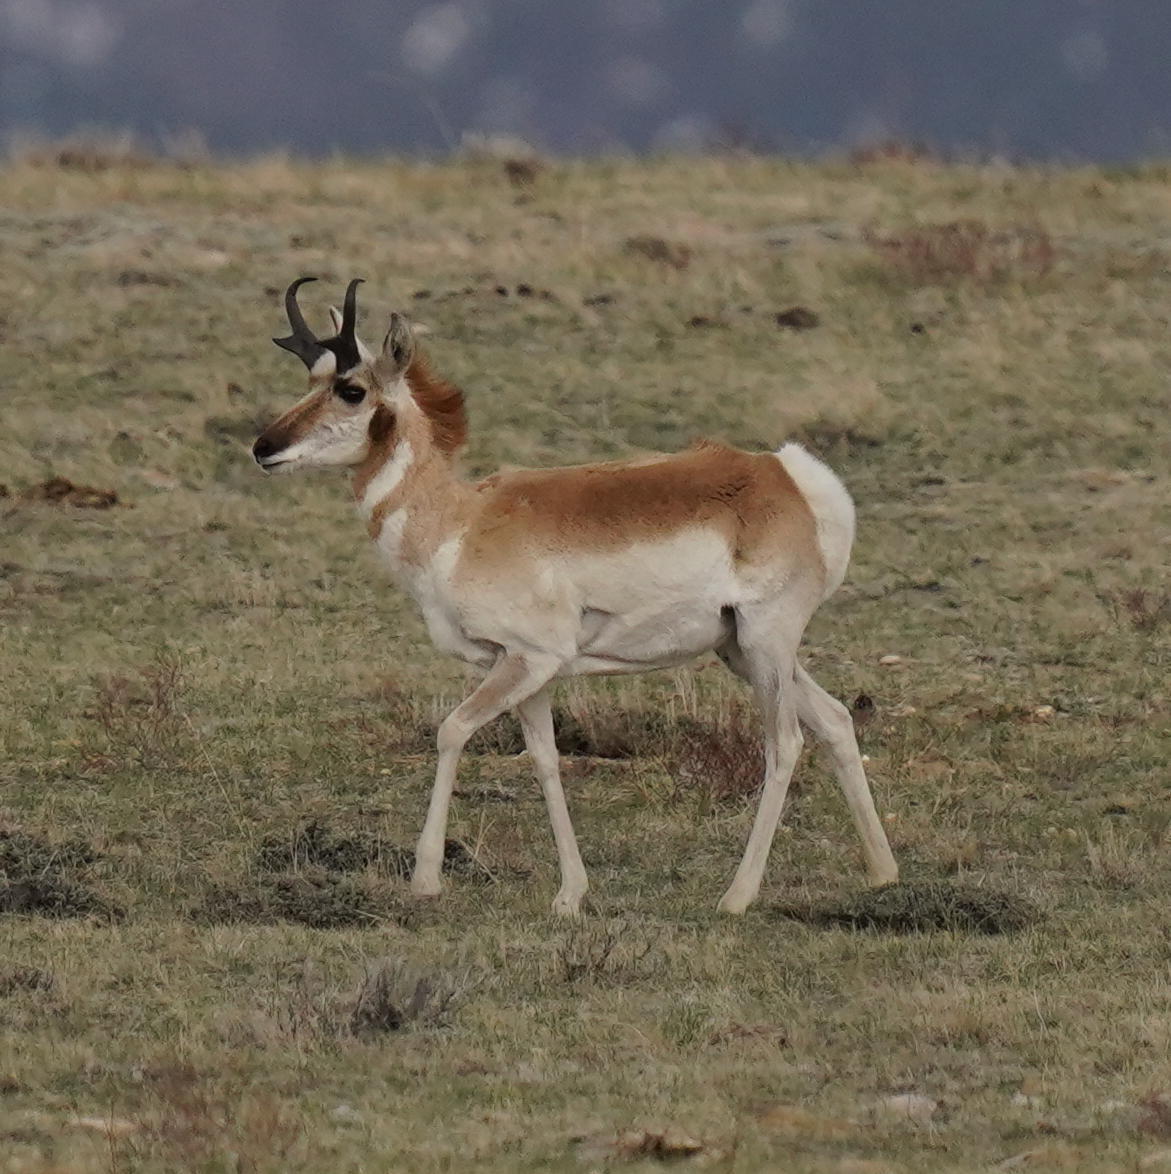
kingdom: Animalia
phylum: Chordata
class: Mammalia
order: Artiodactyla
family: Antilocapridae
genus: Antilocapra
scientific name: Antilocapra americana
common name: Pronghorn
